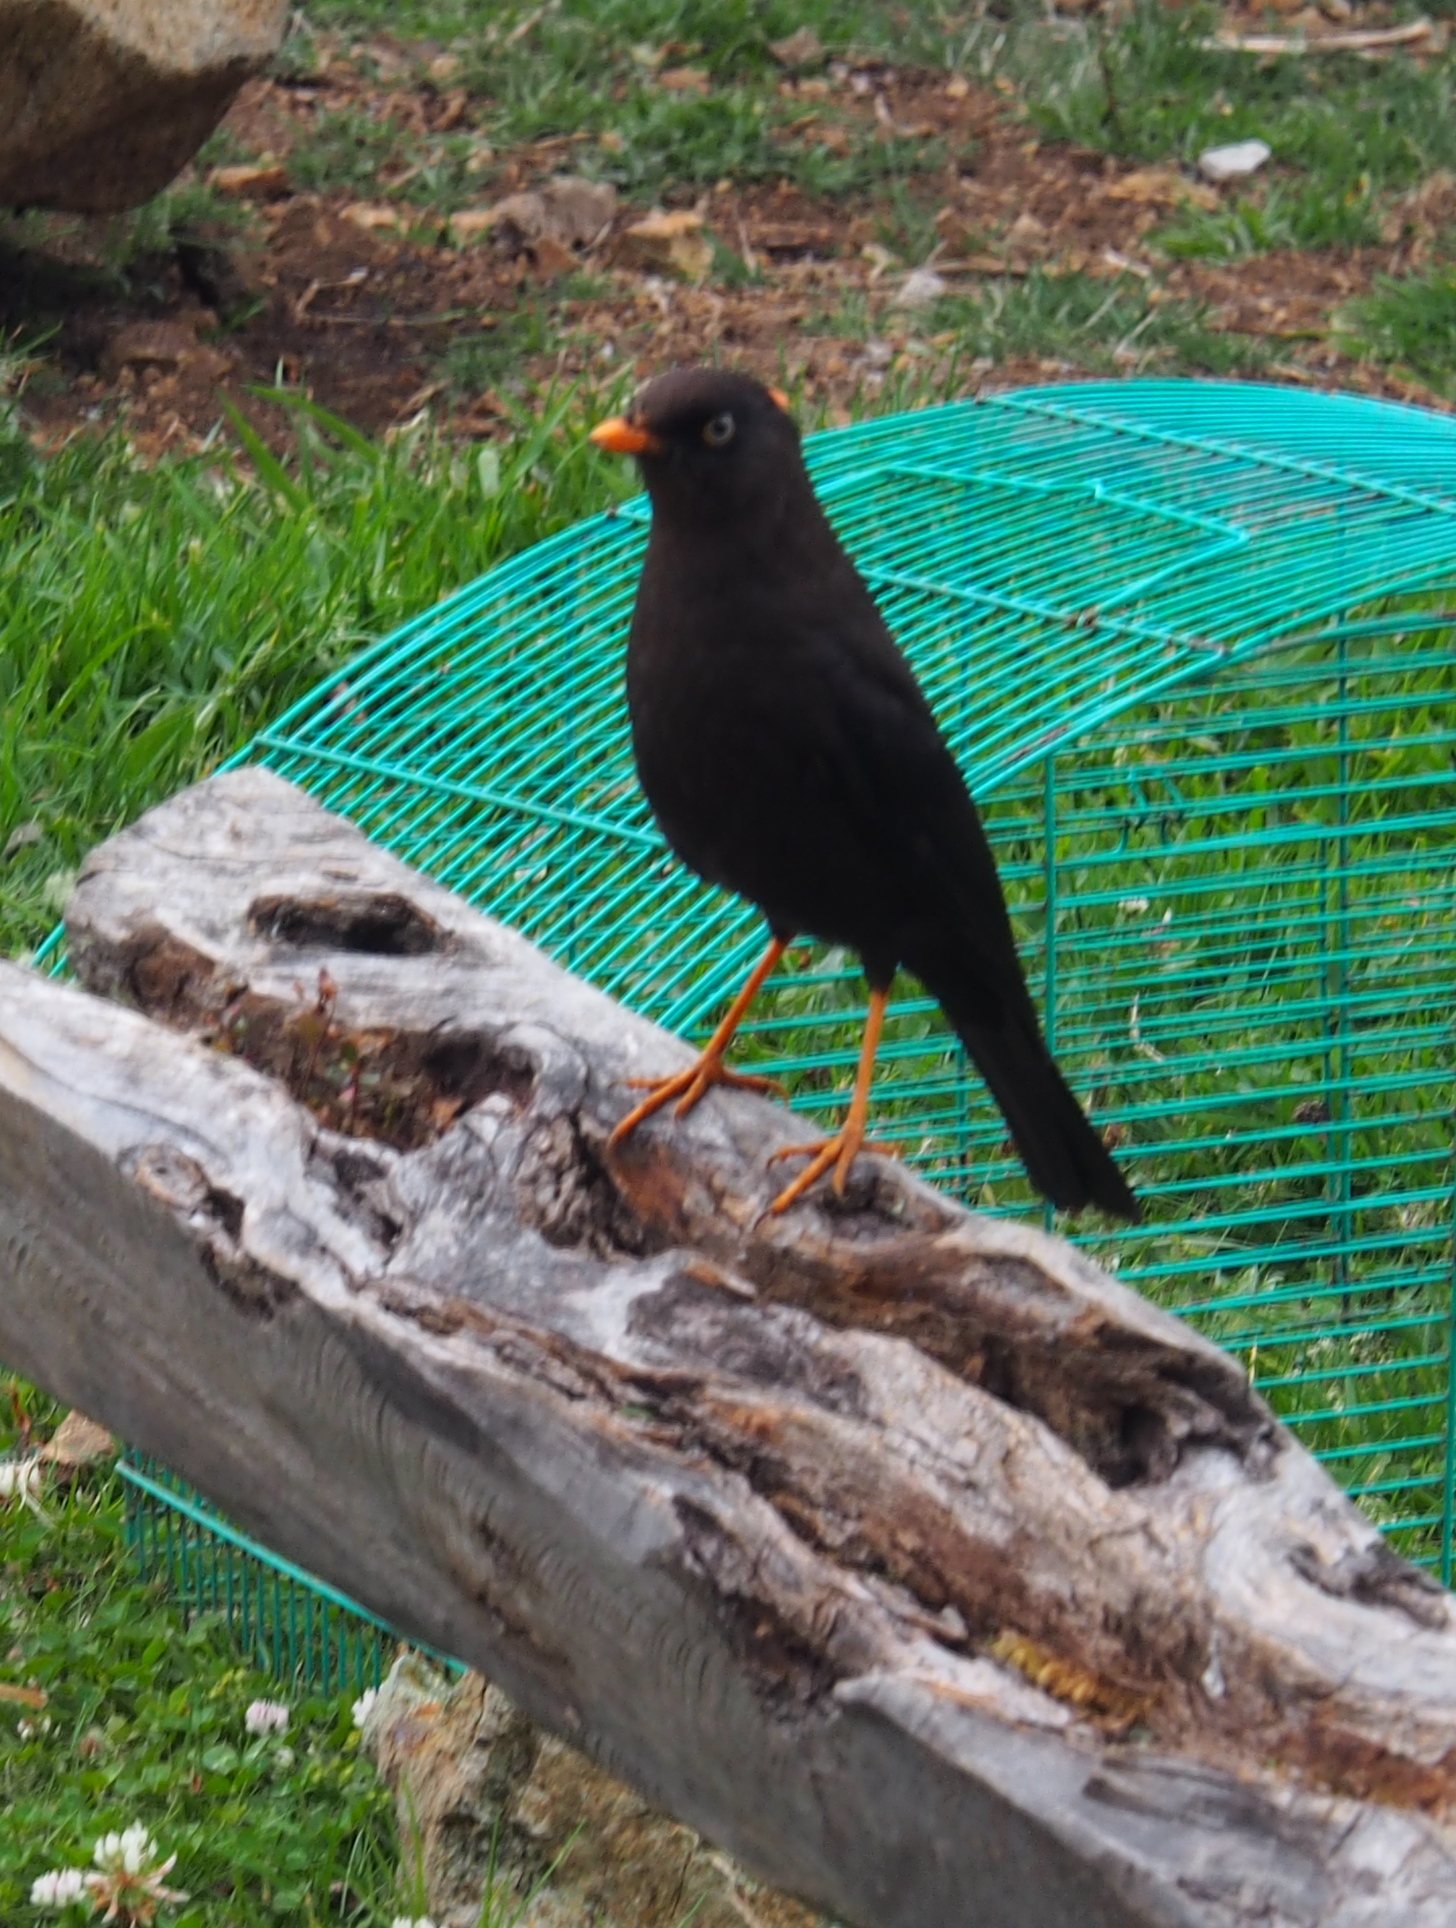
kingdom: Animalia
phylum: Chordata
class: Aves
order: Passeriformes
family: Turdidae
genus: Turdus
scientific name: Turdus nigrescens
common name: Sooty thrush
